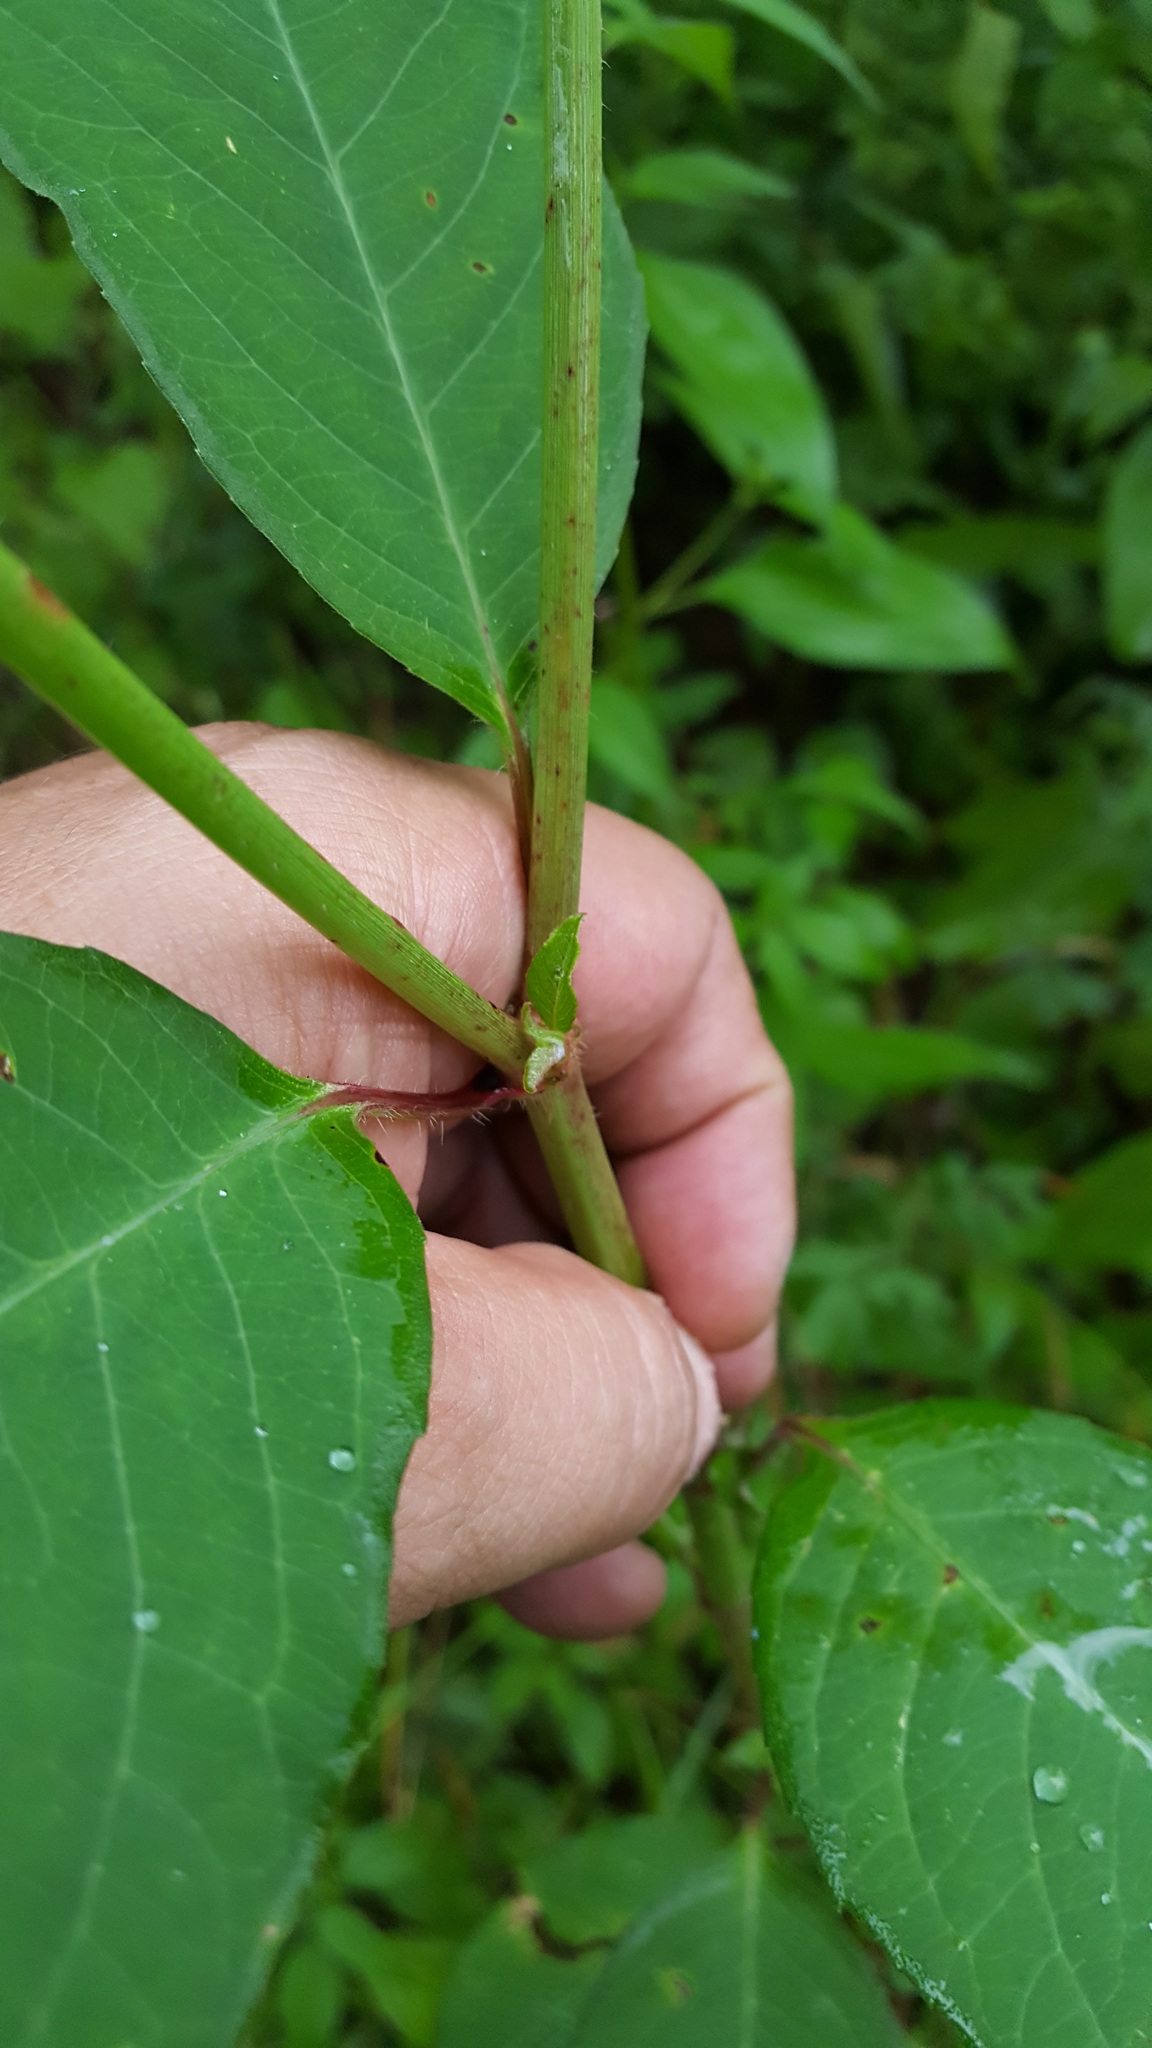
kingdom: Plantae
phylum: Tracheophyta
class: Magnoliopsida
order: Malpighiales
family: Euphorbiaceae
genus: Euphorbia
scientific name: Euphorbia heterophylla
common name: Mexican fireplant
